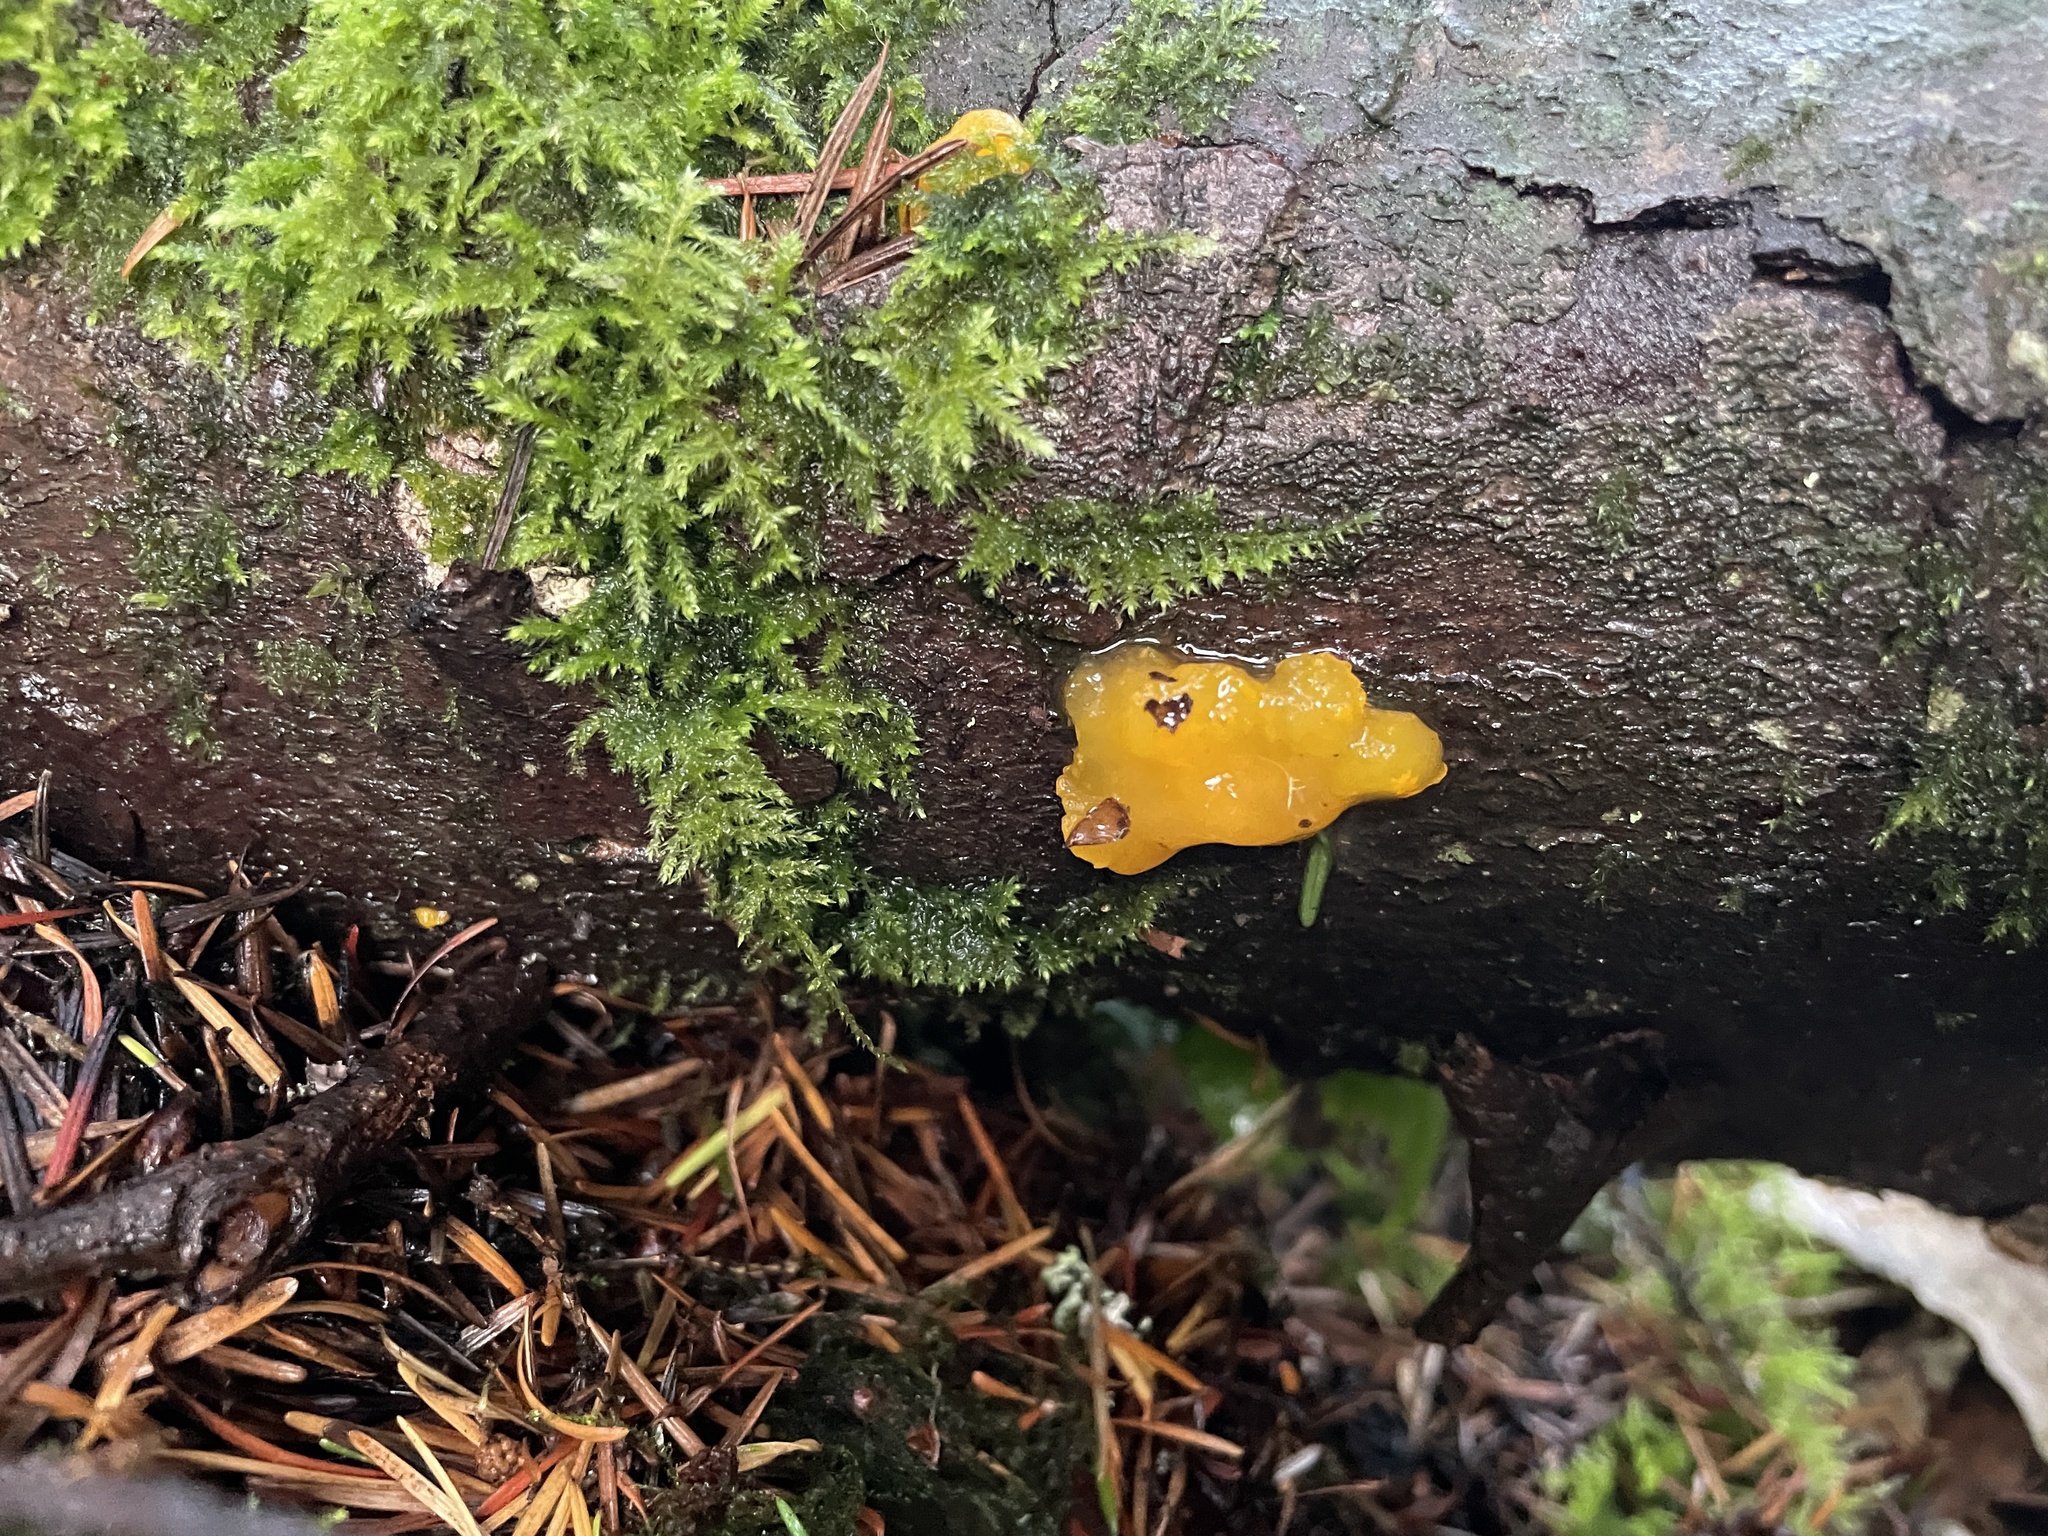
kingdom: Fungi
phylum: Basidiomycota
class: Dacrymycetes
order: Dacrymycetales
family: Dacrymycetaceae
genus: Dacrymyces
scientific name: Dacrymyces chrysospermus
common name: Orange jelly spot
